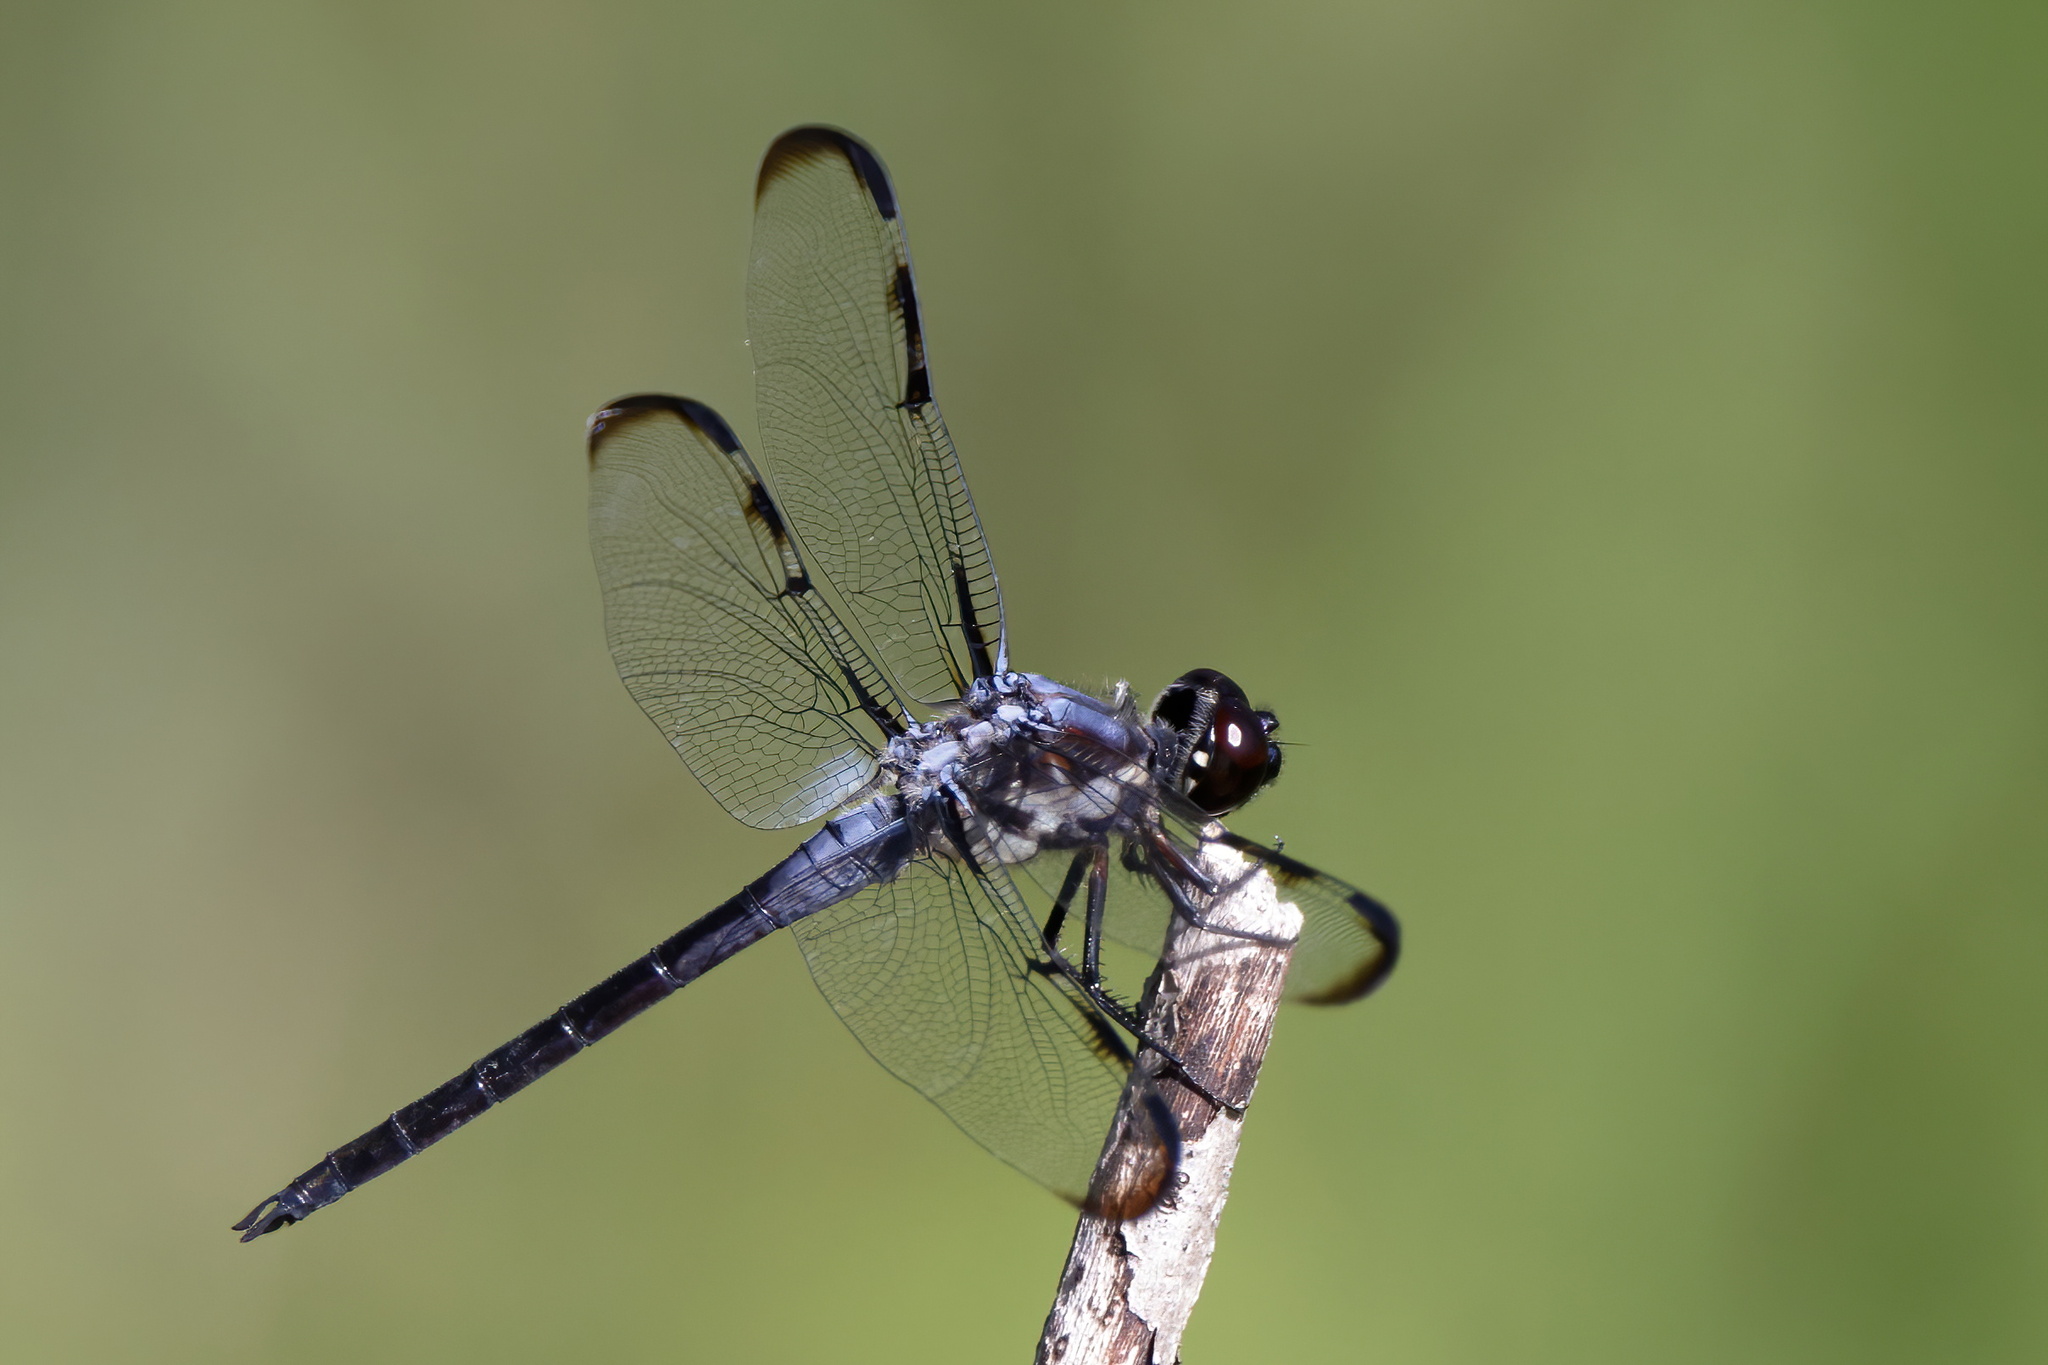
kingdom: Animalia
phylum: Arthropoda
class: Insecta
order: Odonata
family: Libellulidae
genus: Libellula
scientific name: Libellula axilena
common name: Bar-winged skimmer
